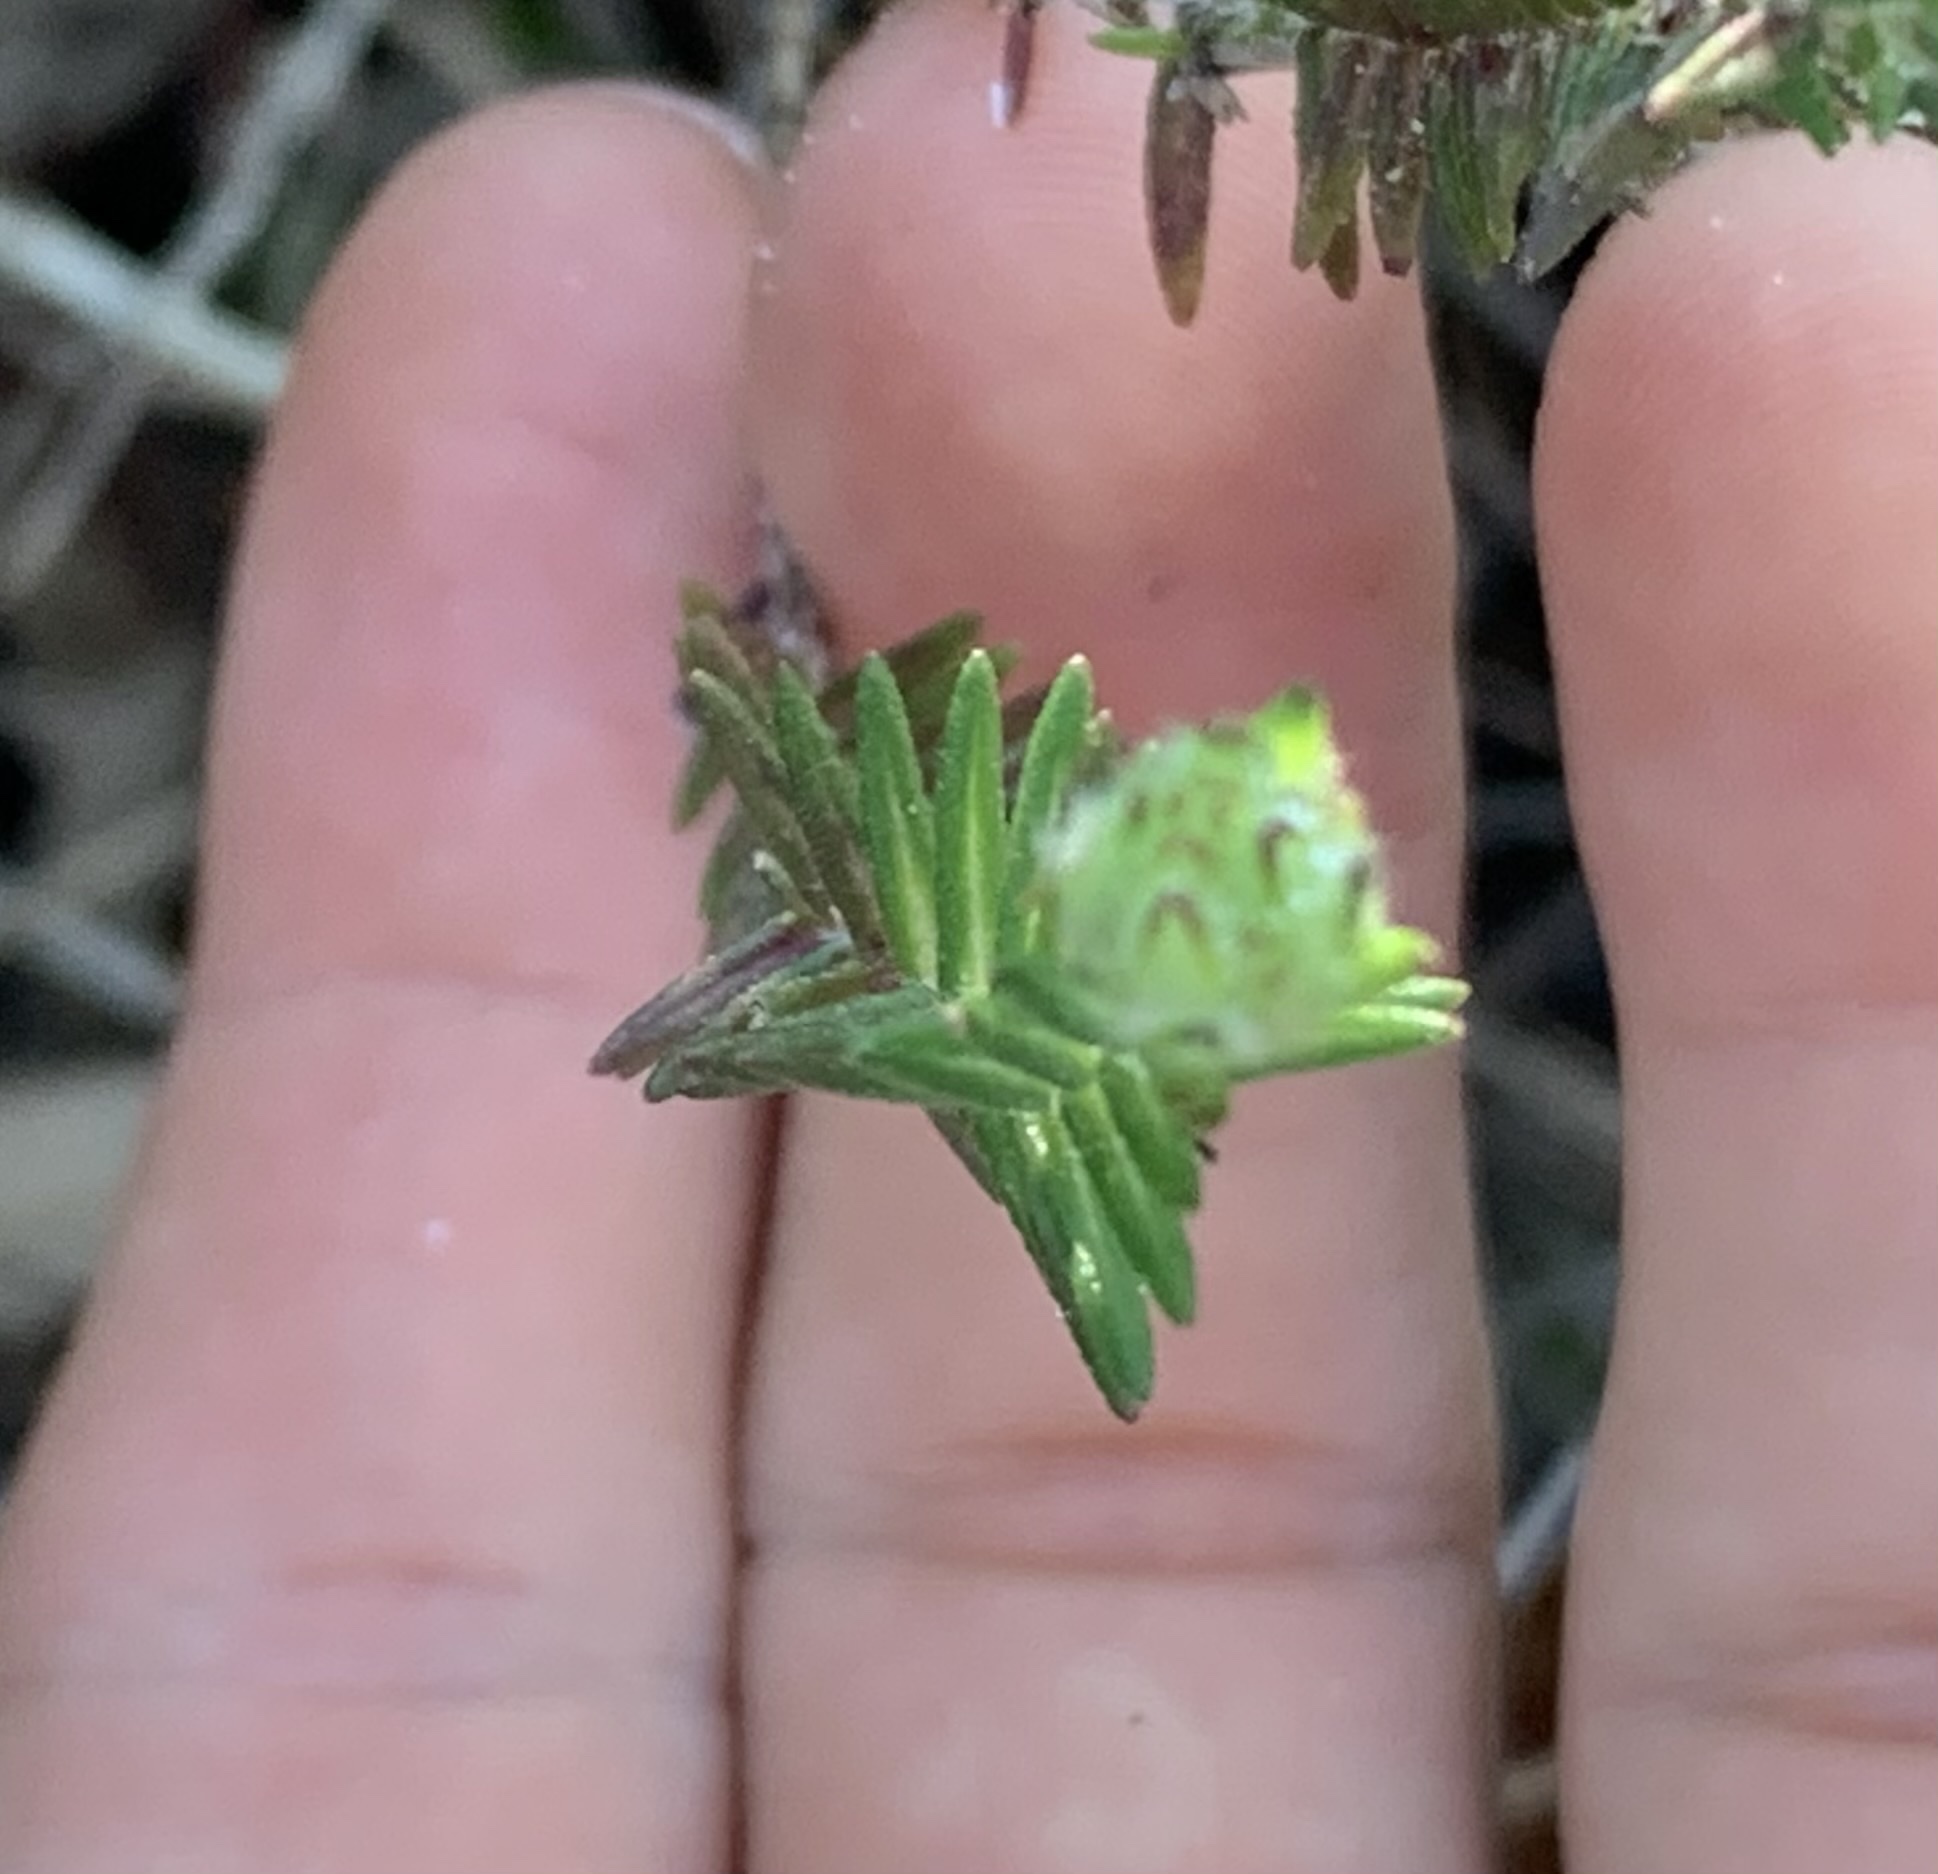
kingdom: Plantae
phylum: Tracheophyta
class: Magnoliopsida
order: Lamiales
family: Lamiaceae
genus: Piloblephis
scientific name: Piloblephis rigida
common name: Wild pennyroyal
